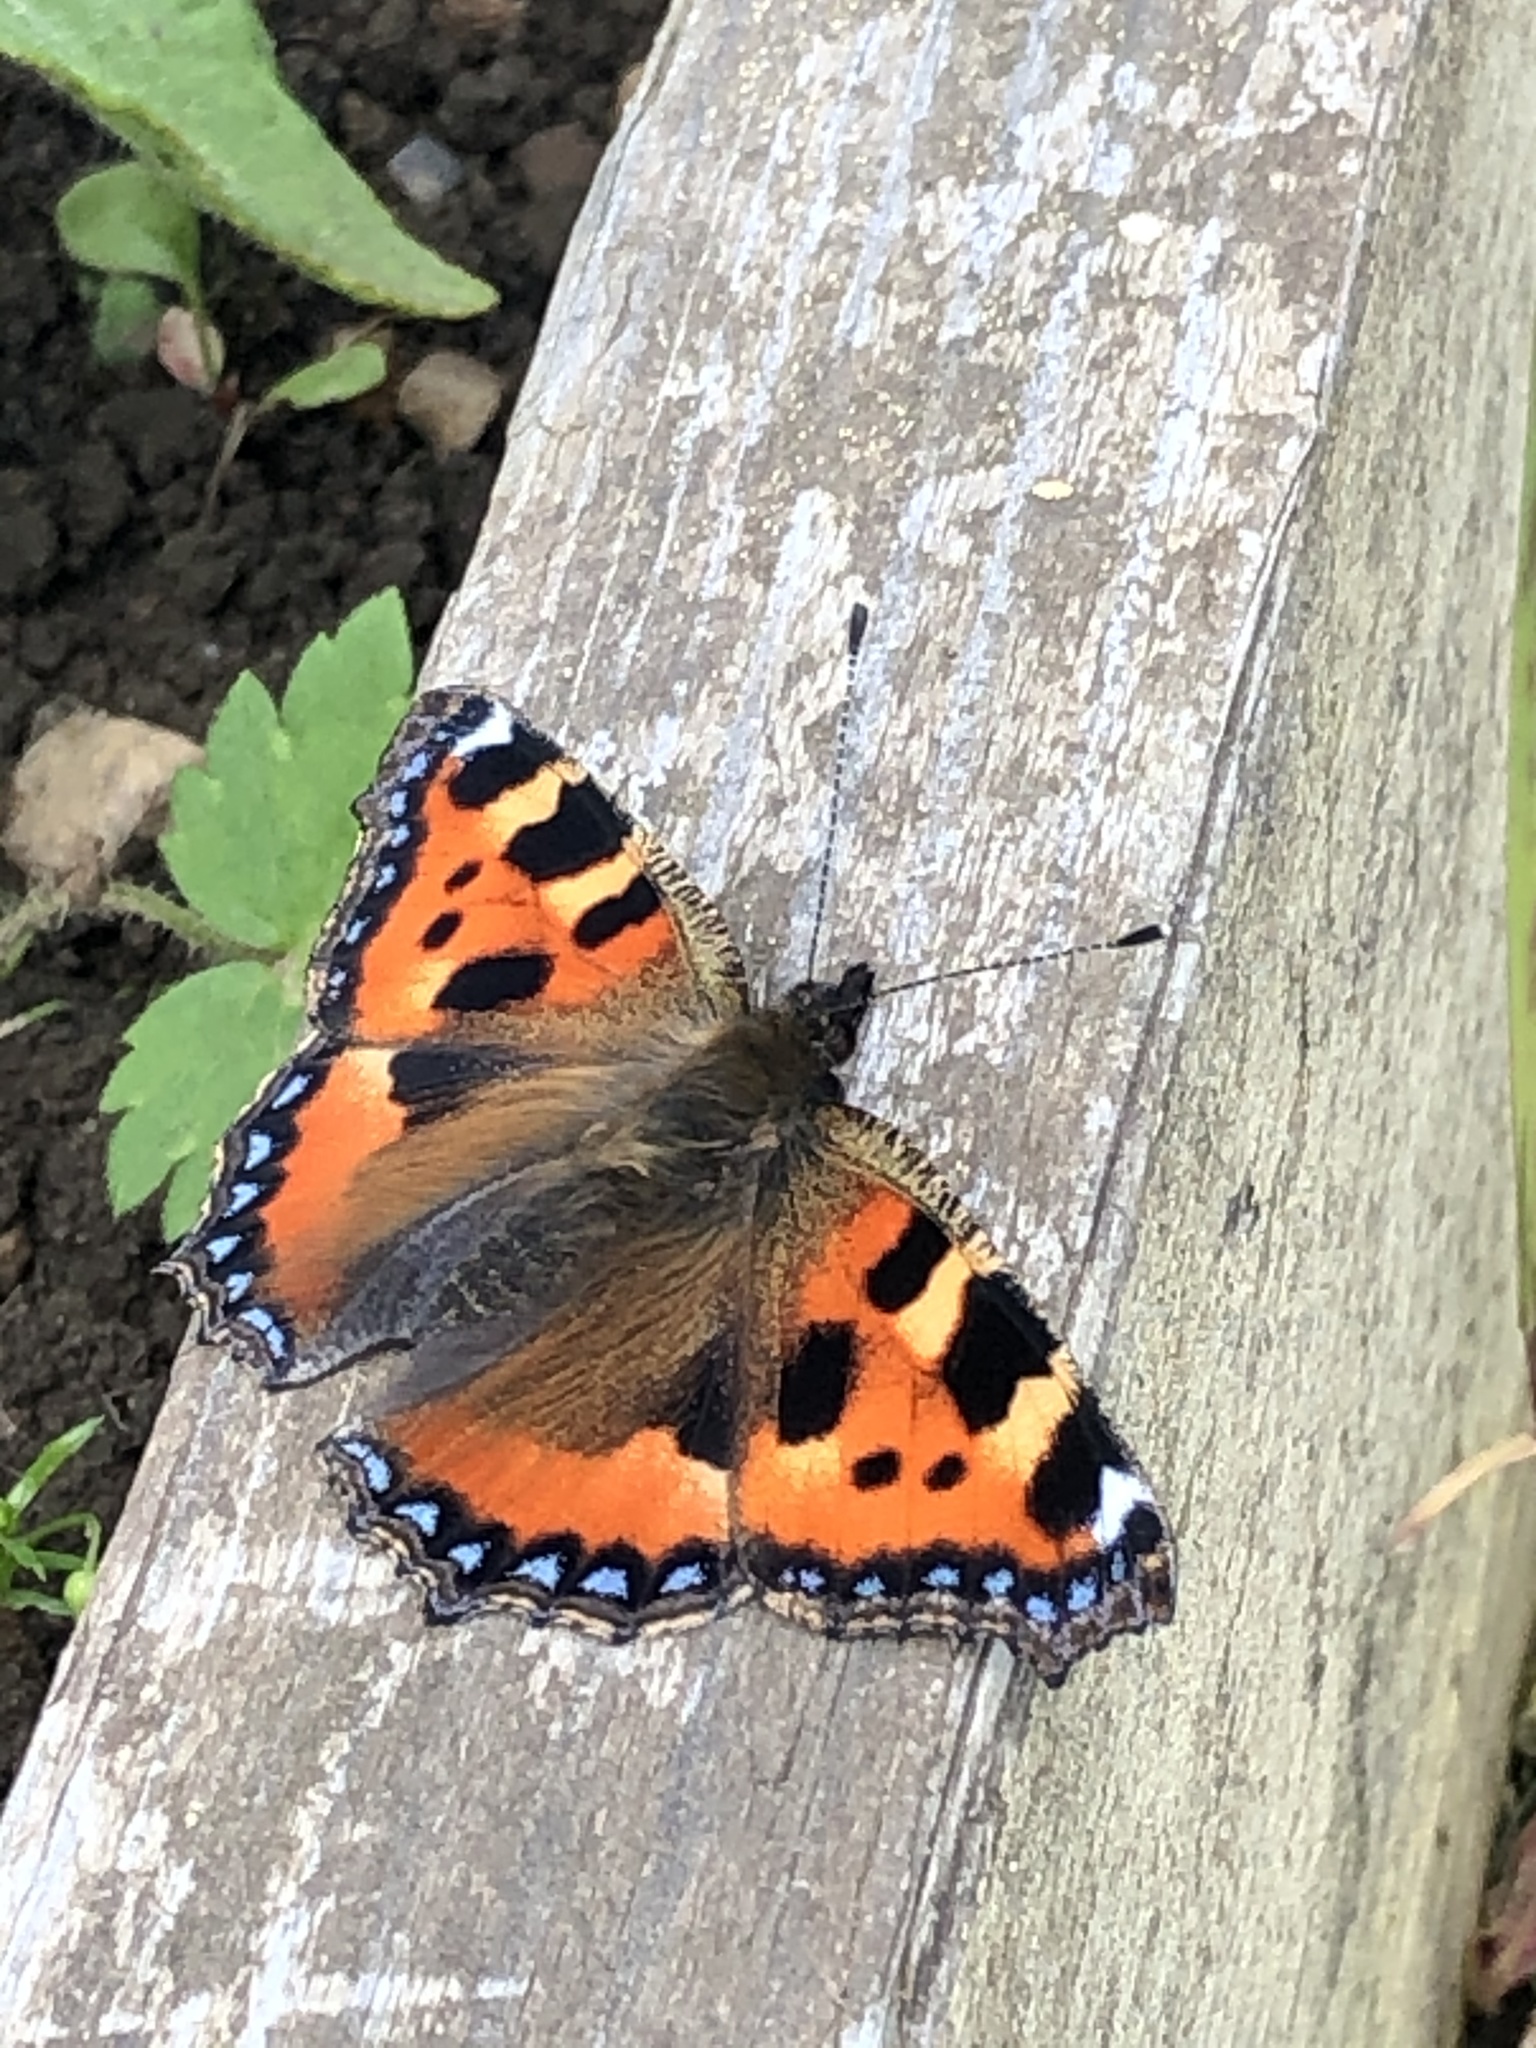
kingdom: Animalia
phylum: Arthropoda
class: Insecta
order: Lepidoptera
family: Nymphalidae
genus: Aglais
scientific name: Aglais urticae
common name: Small tortoiseshell
